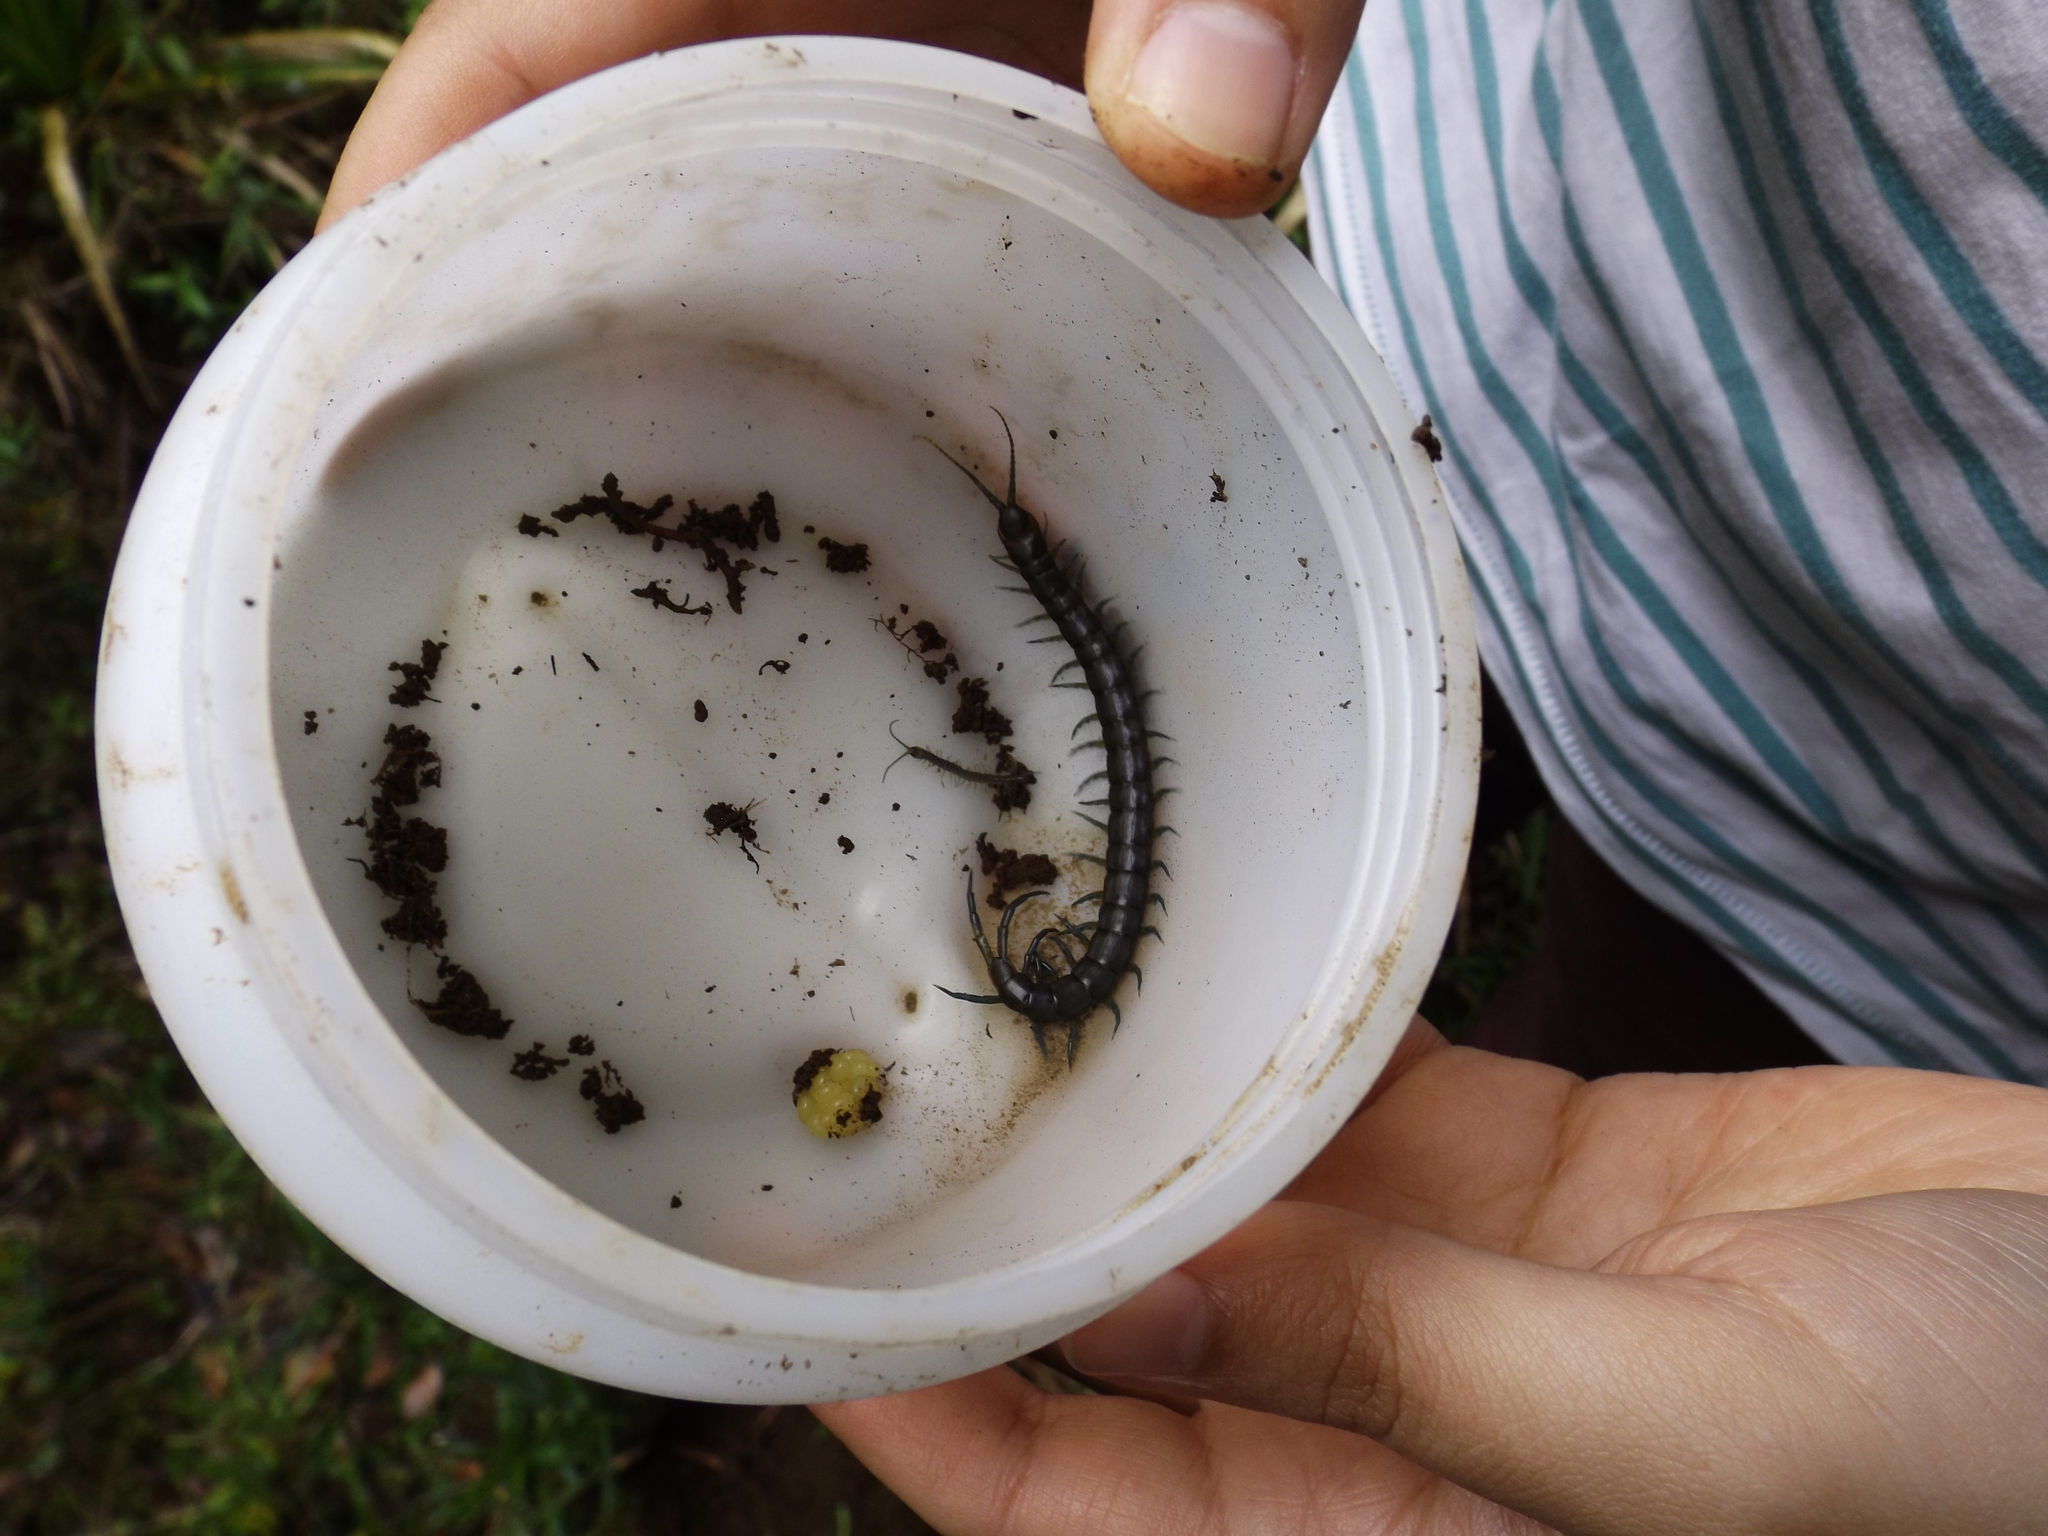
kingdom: Animalia
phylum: Arthropoda
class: Chilopoda
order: Scolopendromorpha
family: Scolopendridae
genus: Hemiscolopendra
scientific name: Hemiscolopendra chilensis
